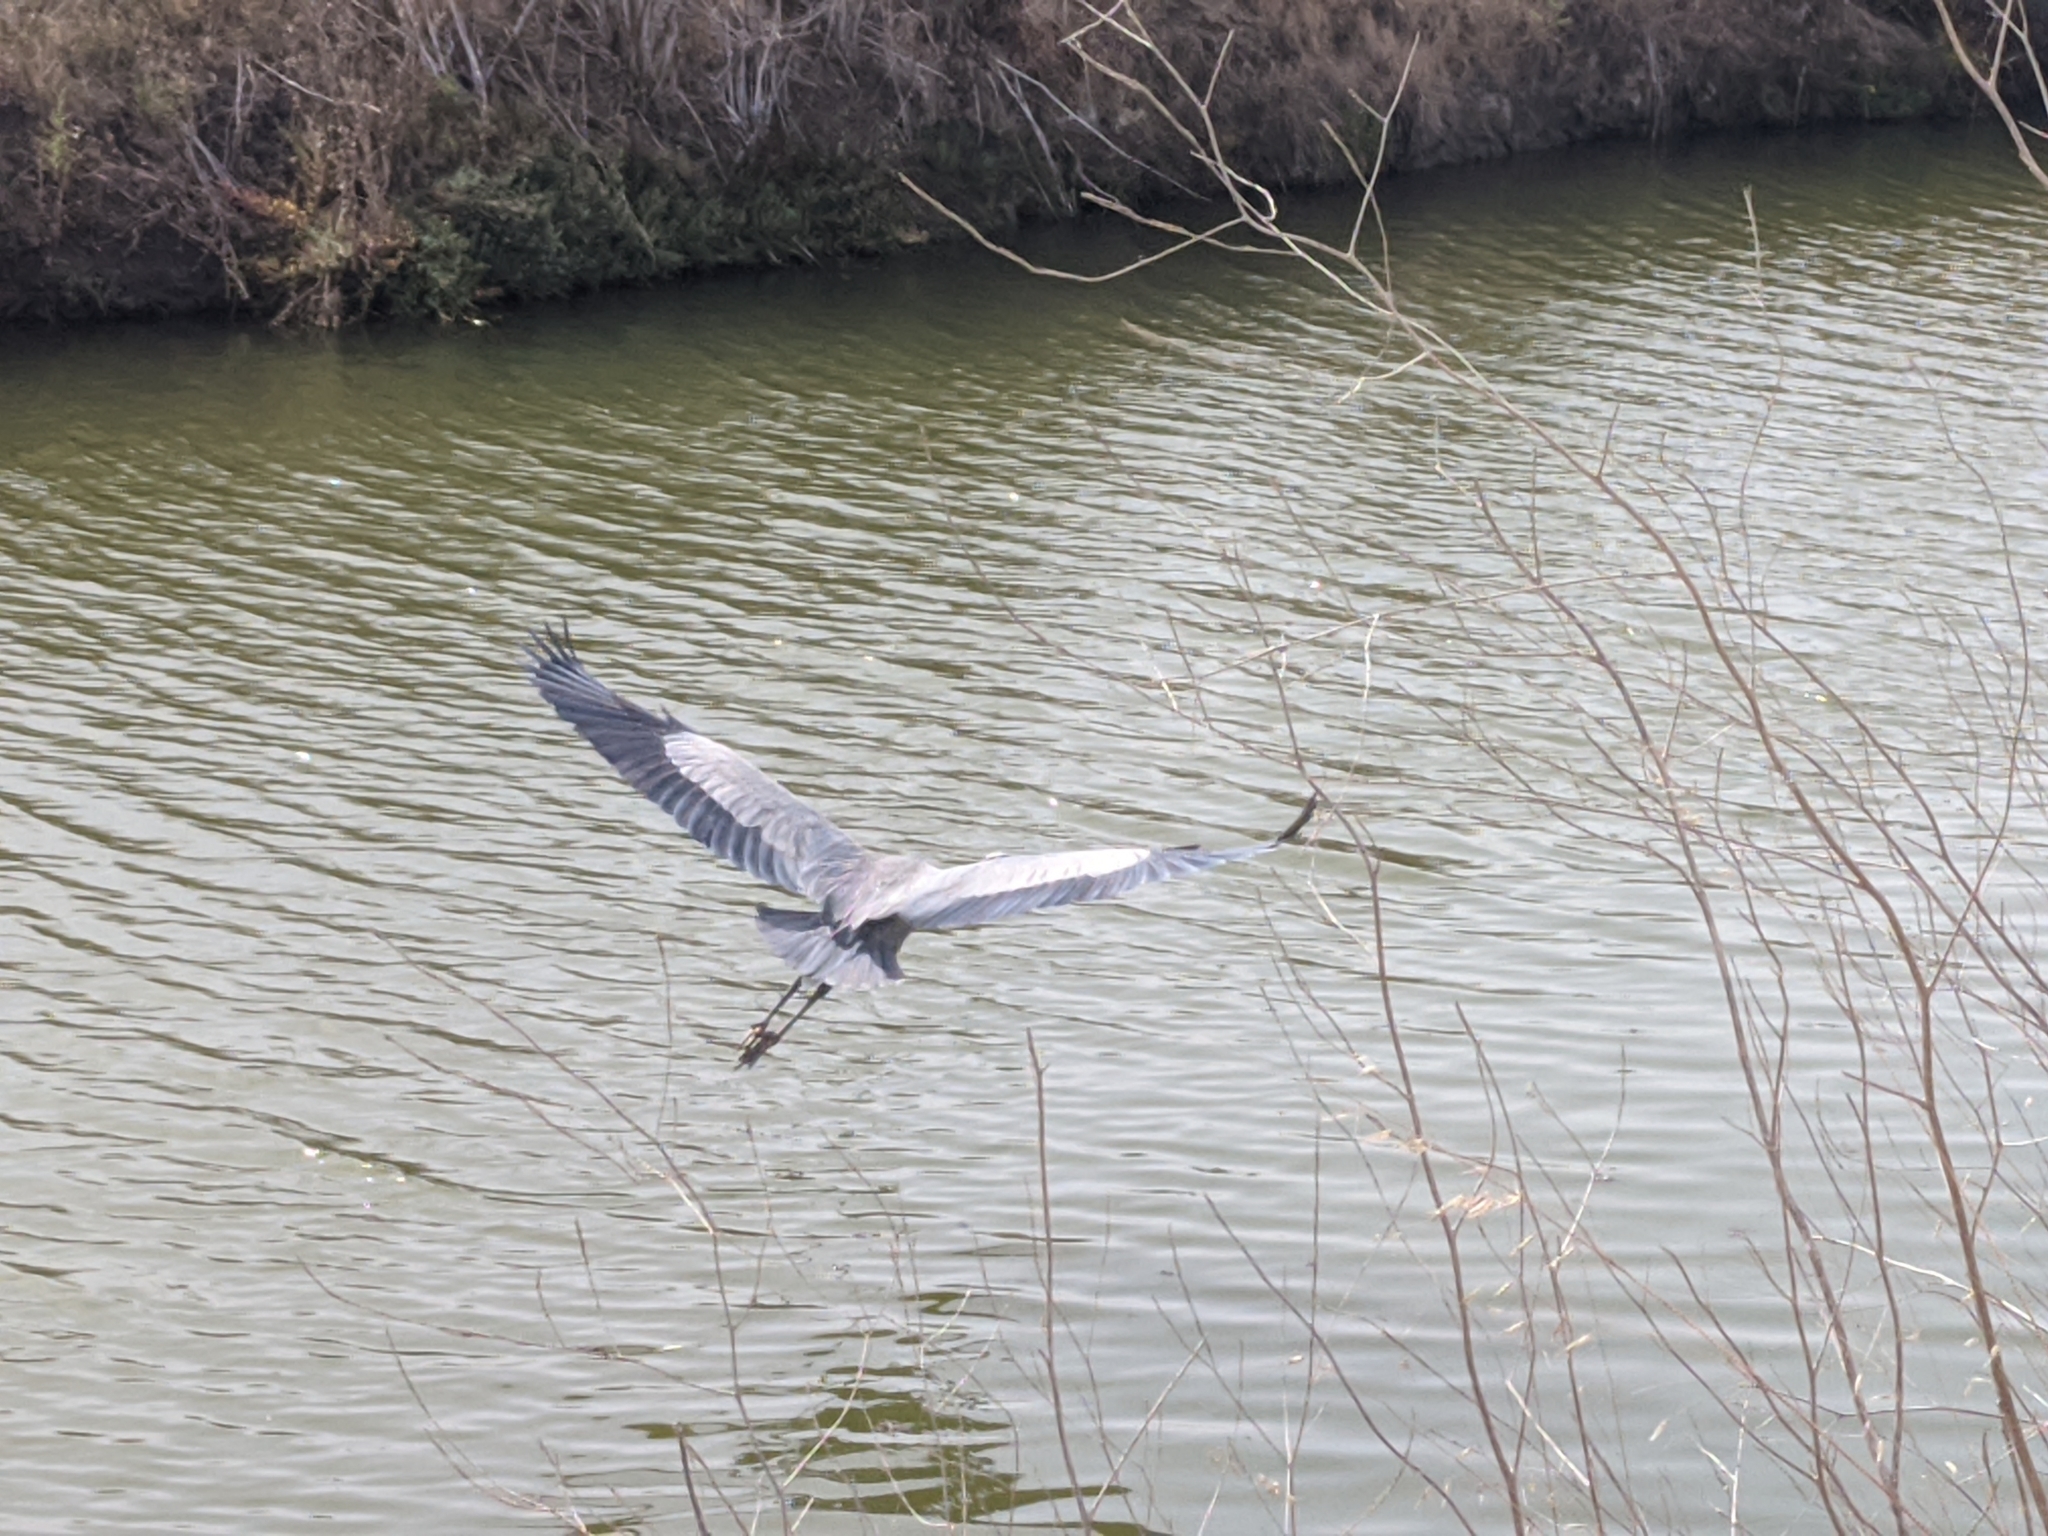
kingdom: Animalia
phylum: Chordata
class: Aves
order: Pelecaniformes
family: Ardeidae
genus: Ardea
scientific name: Ardea herodias
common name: Great blue heron
